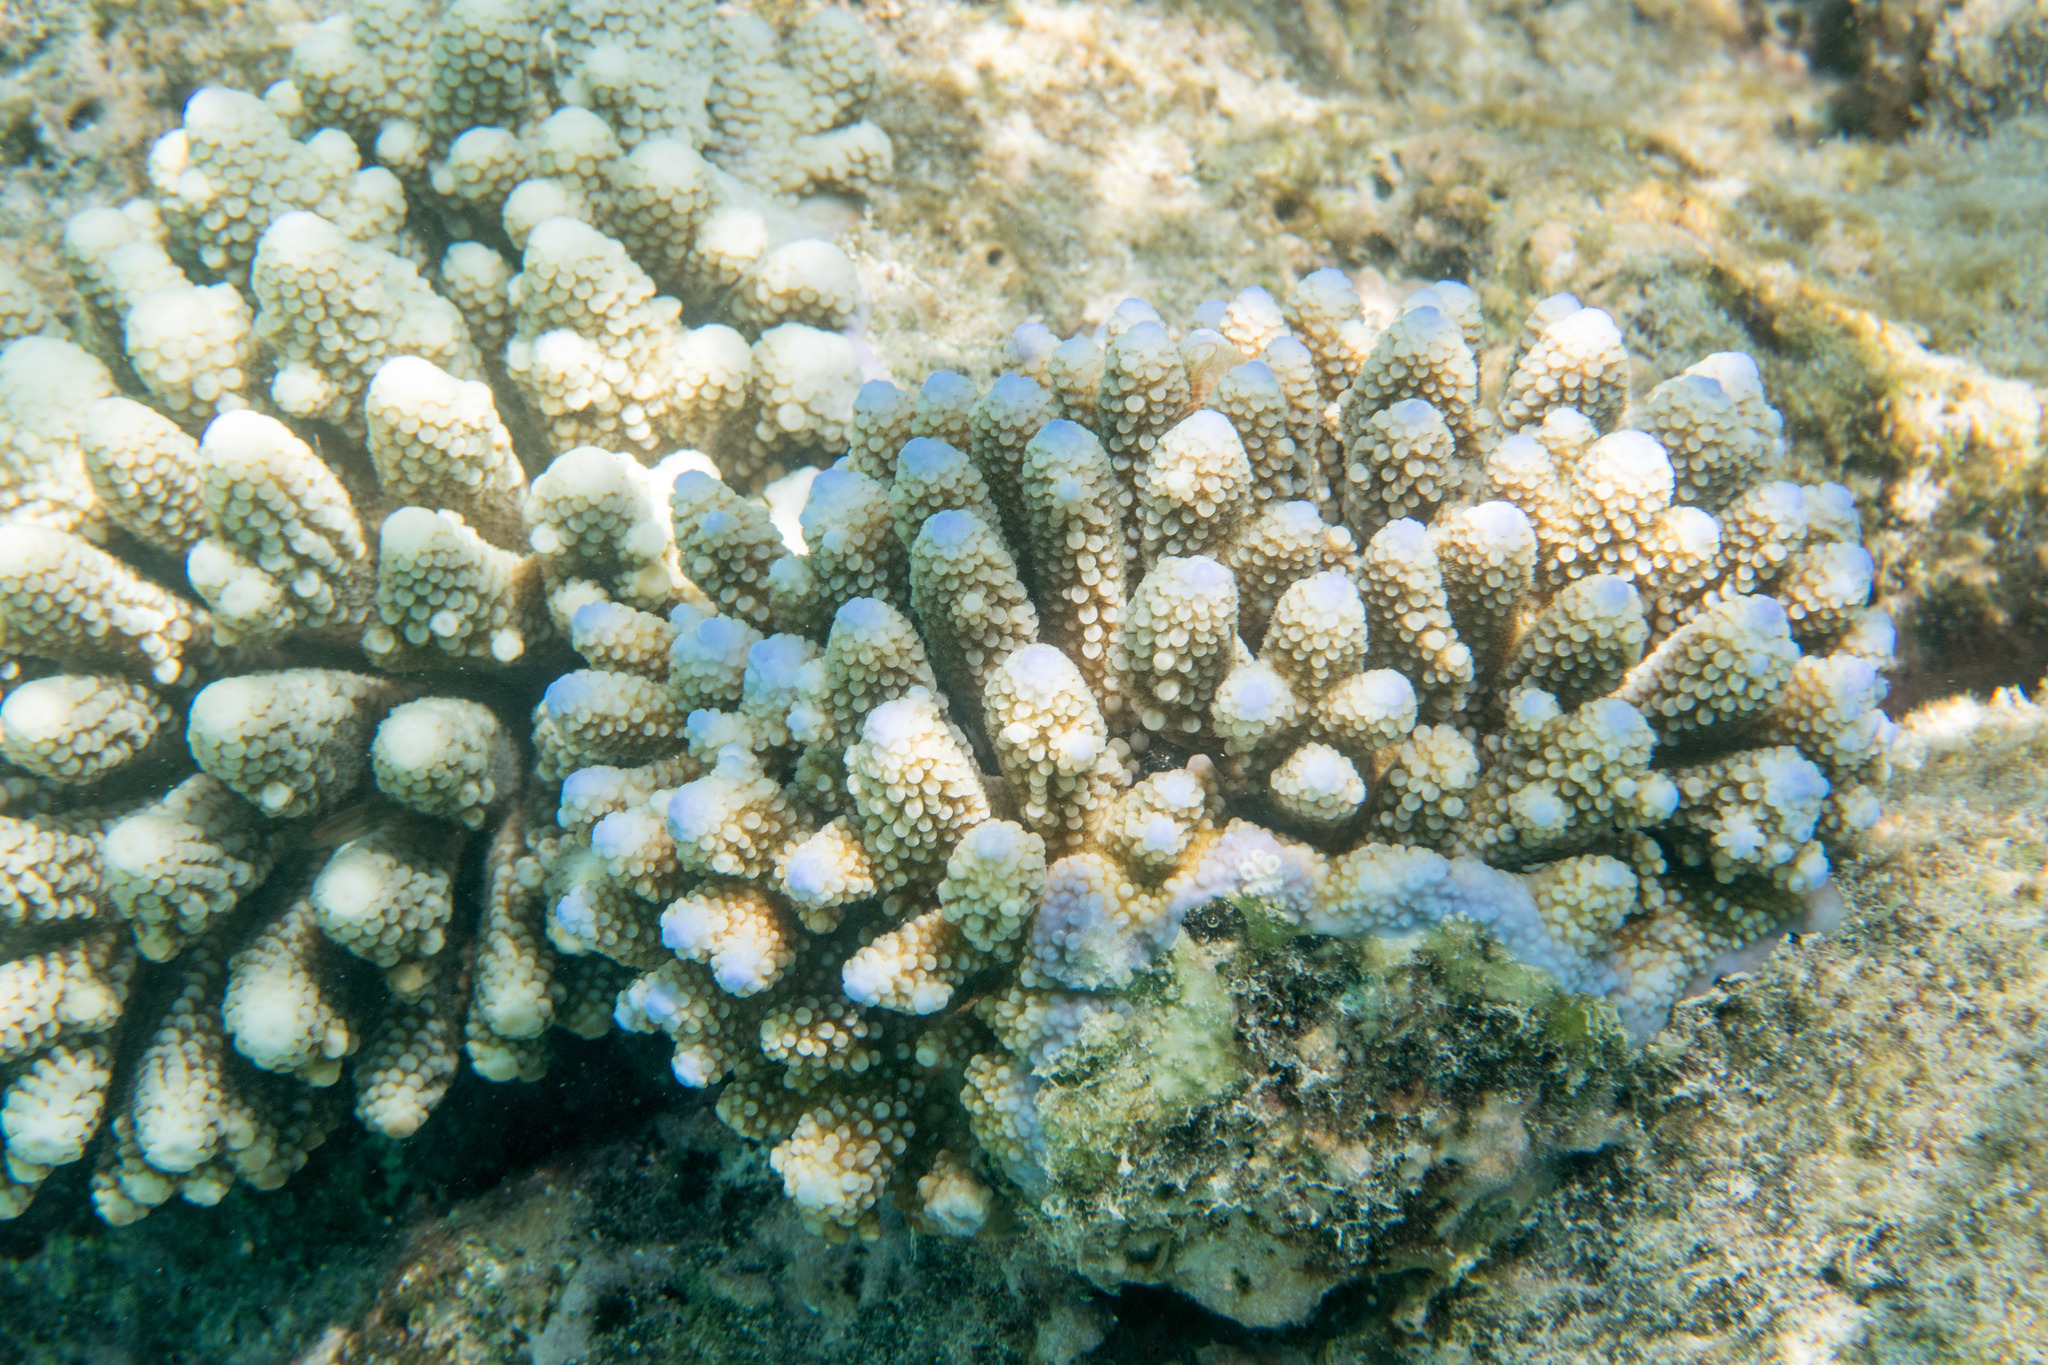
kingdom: Animalia
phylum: Cnidaria
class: Anthozoa
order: Scleractinia
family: Acroporidae
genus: Acropora
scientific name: Acropora gemmifera
